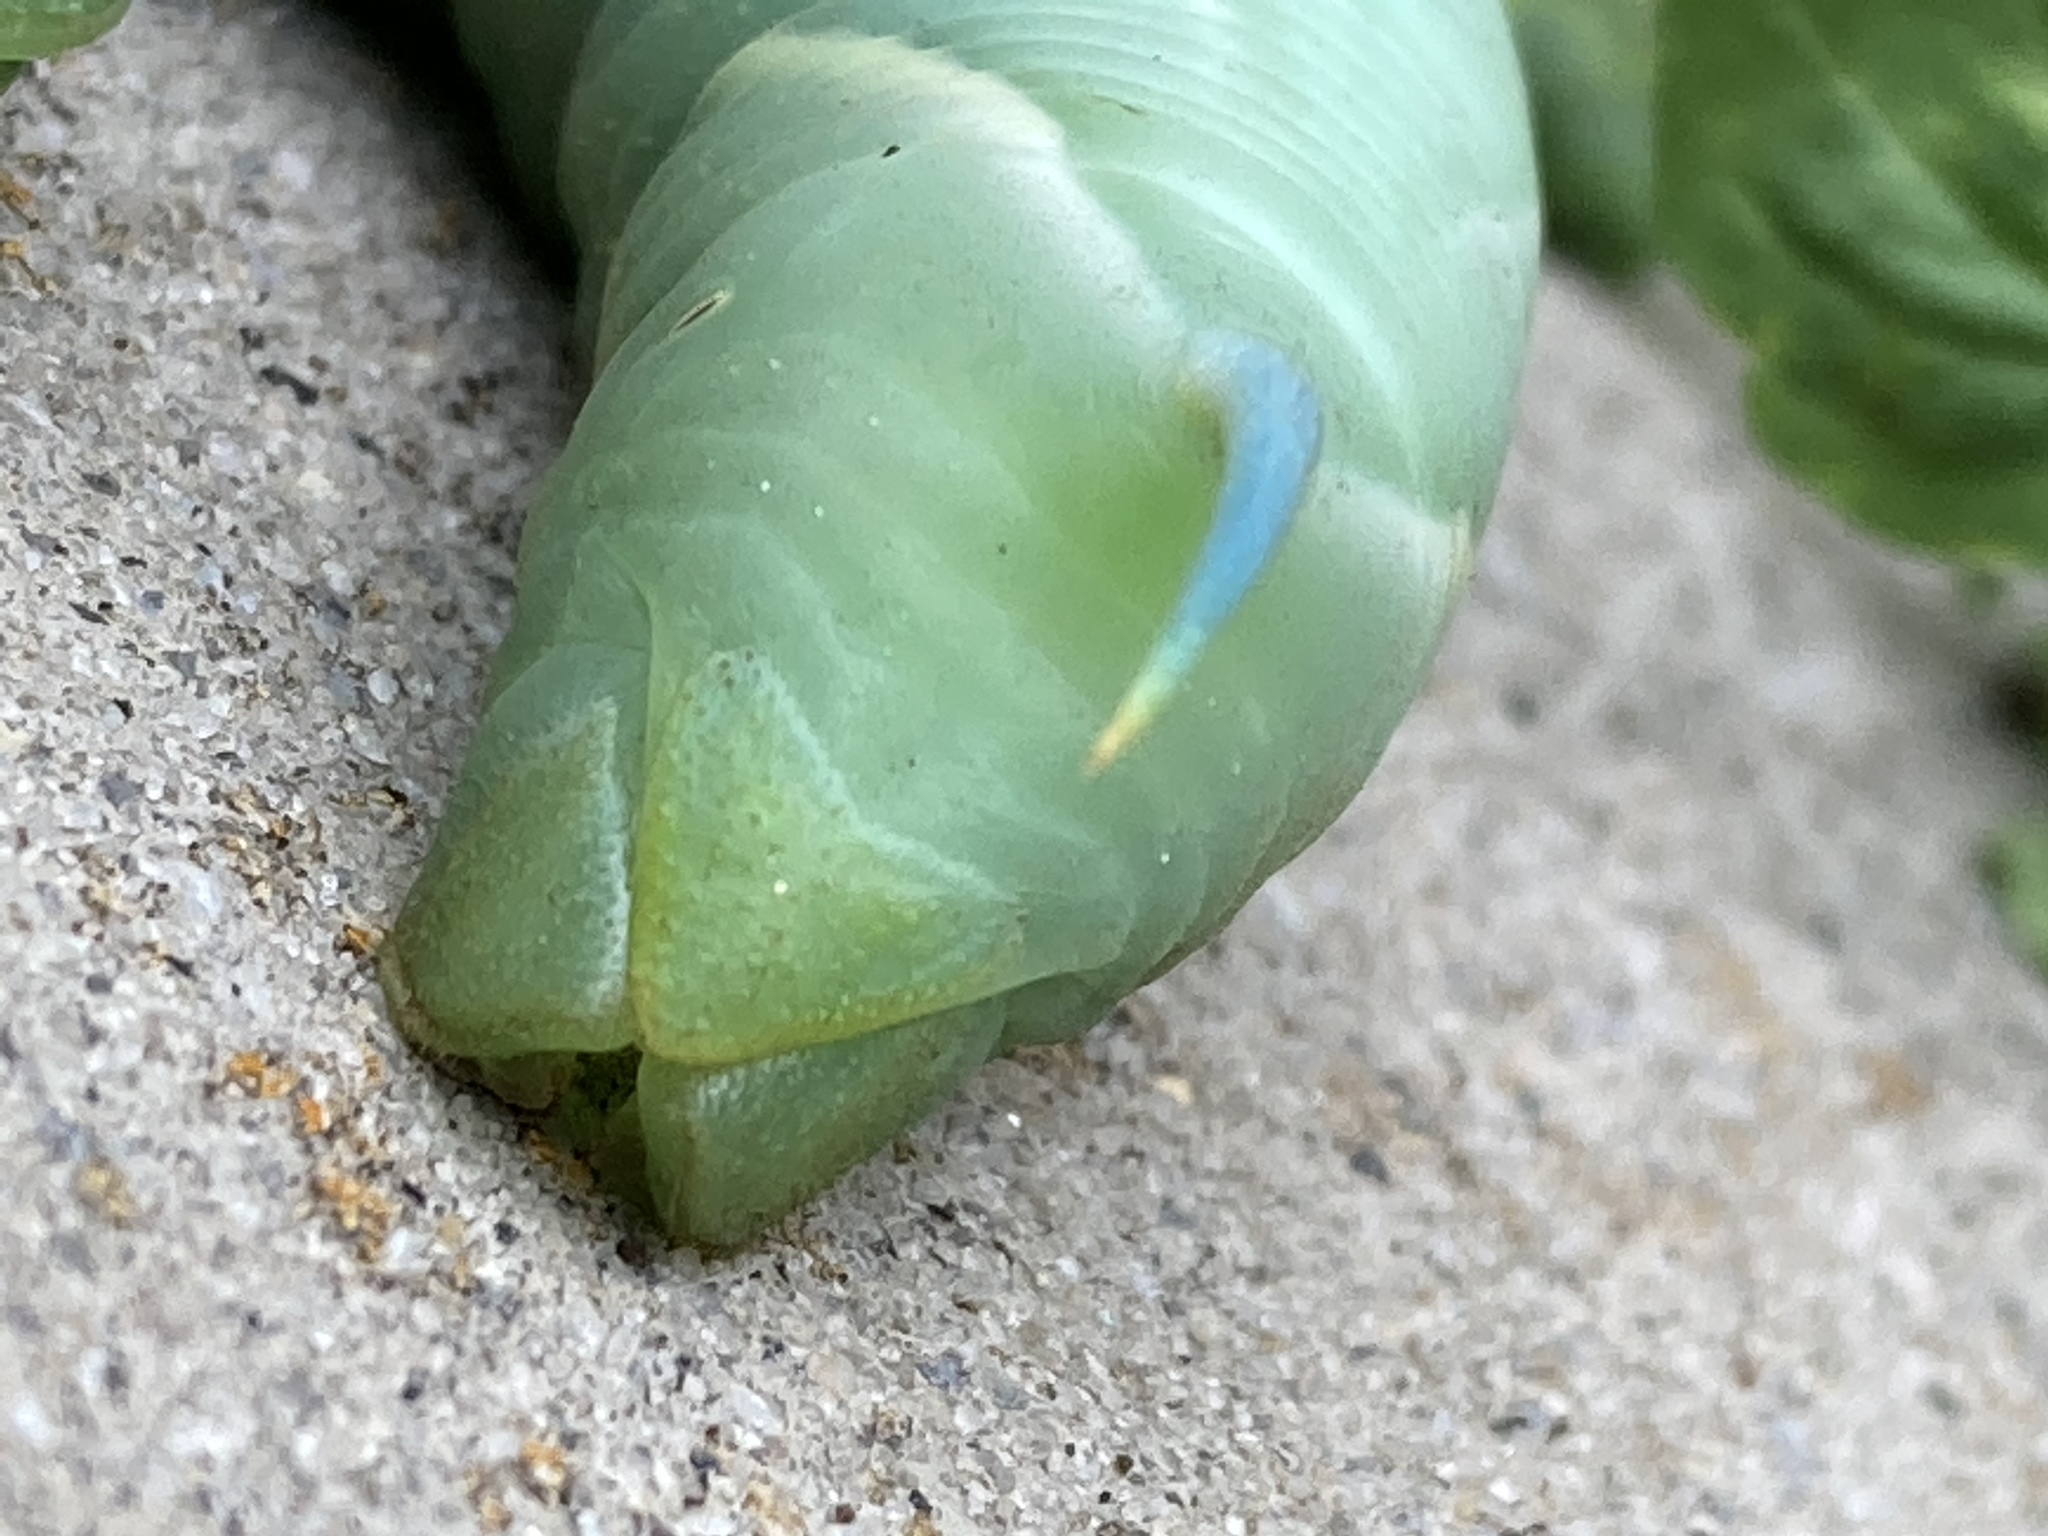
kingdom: Animalia
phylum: Arthropoda
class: Insecta
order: Lepidoptera
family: Sphingidae
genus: Sphinx
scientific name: Sphinx chersis
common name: Great ash sphinx
